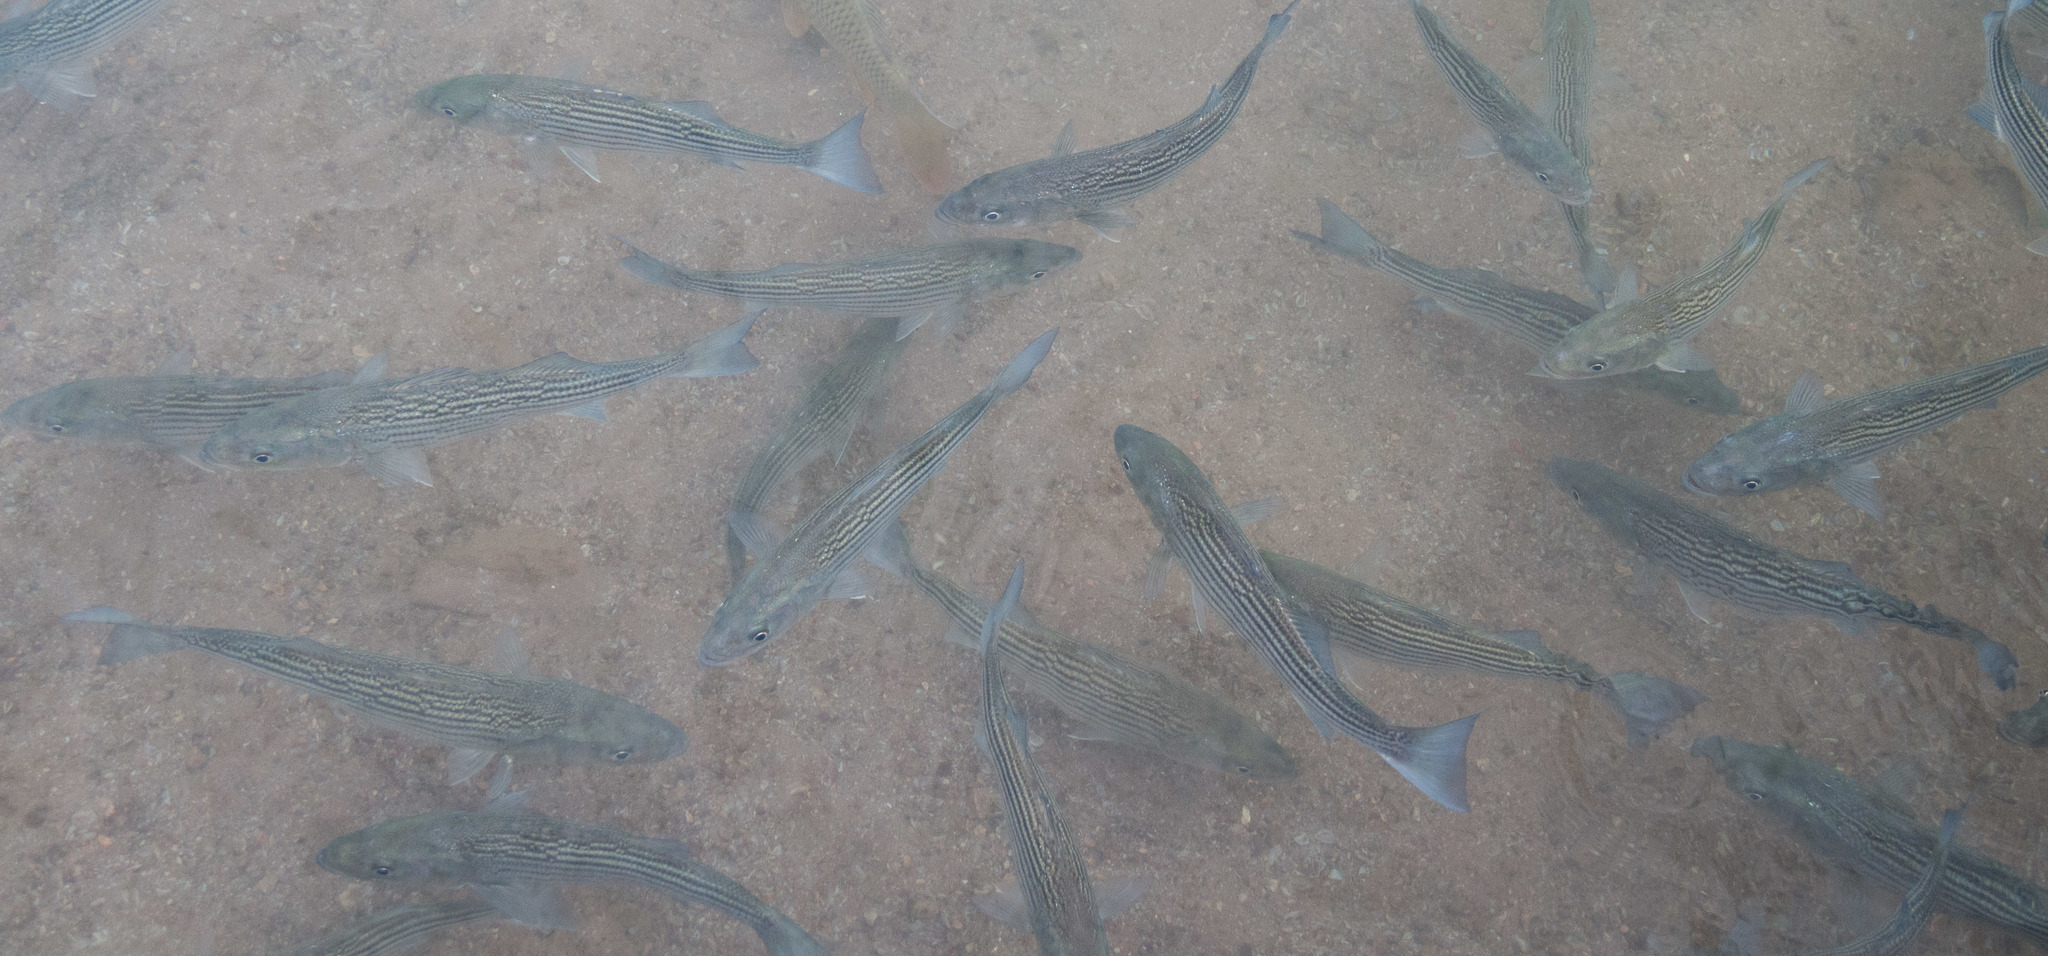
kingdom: Animalia
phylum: Chordata
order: Perciformes
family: Moronidae
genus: Morone
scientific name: Morone saxatilis
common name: Striped bass
